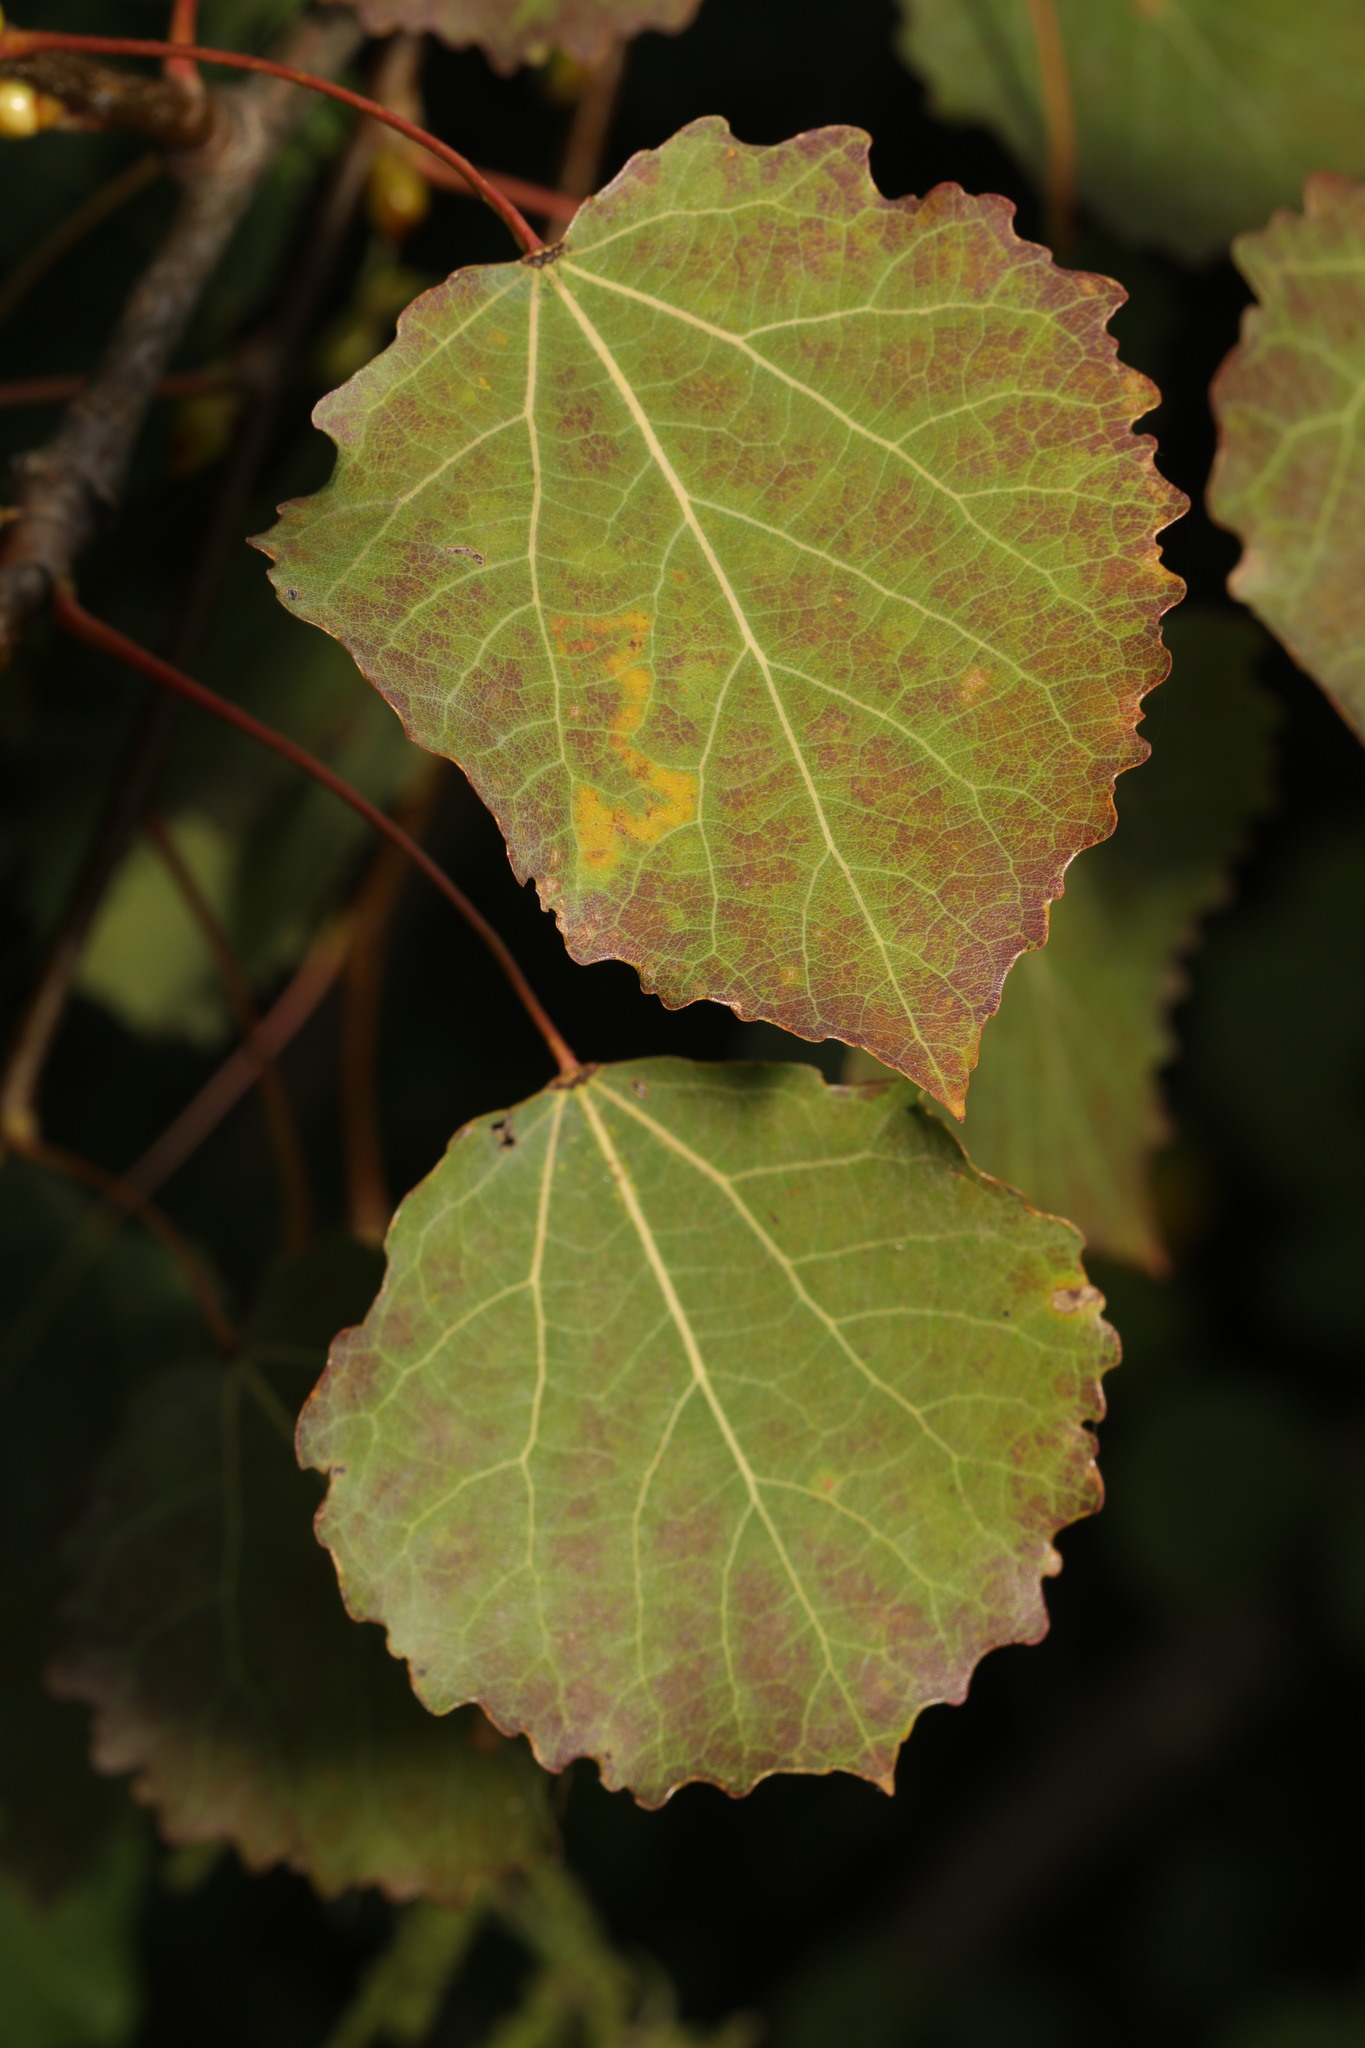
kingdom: Plantae
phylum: Tracheophyta
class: Magnoliopsida
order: Malpighiales
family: Salicaceae
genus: Populus
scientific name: Populus tremula
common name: European aspen
